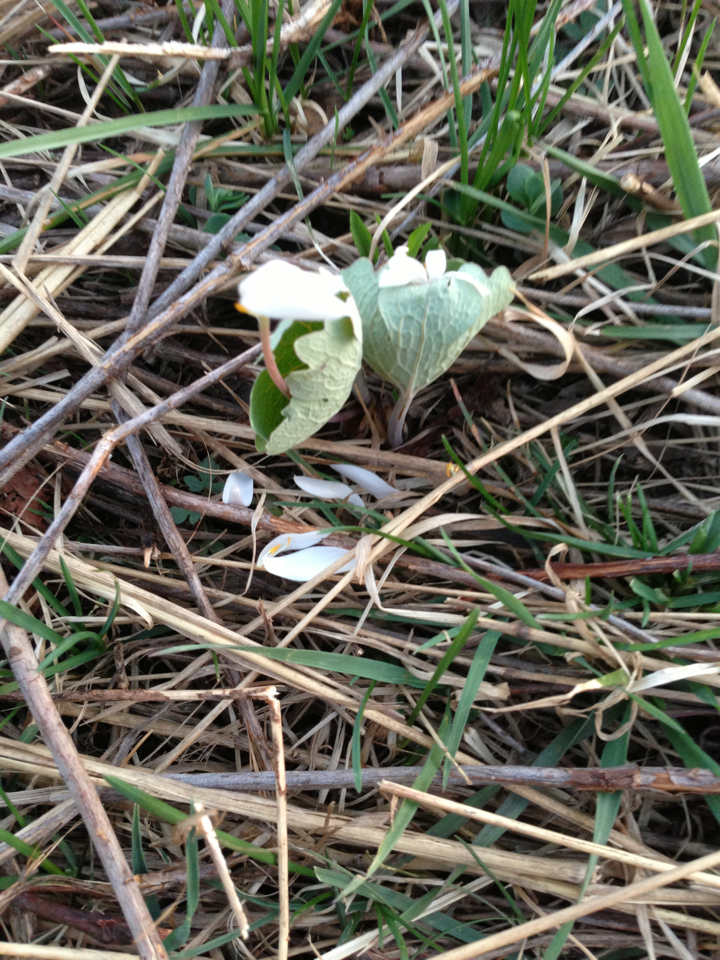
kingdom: Plantae
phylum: Tracheophyta
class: Magnoliopsida
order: Ranunculales
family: Papaveraceae
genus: Sanguinaria
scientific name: Sanguinaria canadensis
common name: Bloodroot
